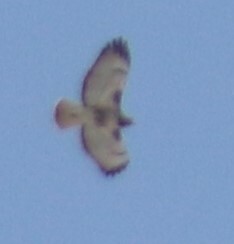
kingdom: Animalia
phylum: Chordata
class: Aves
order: Accipitriformes
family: Accipitridae
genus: Buteo
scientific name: Buteo jamaicensis
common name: Red-tailed hawk
